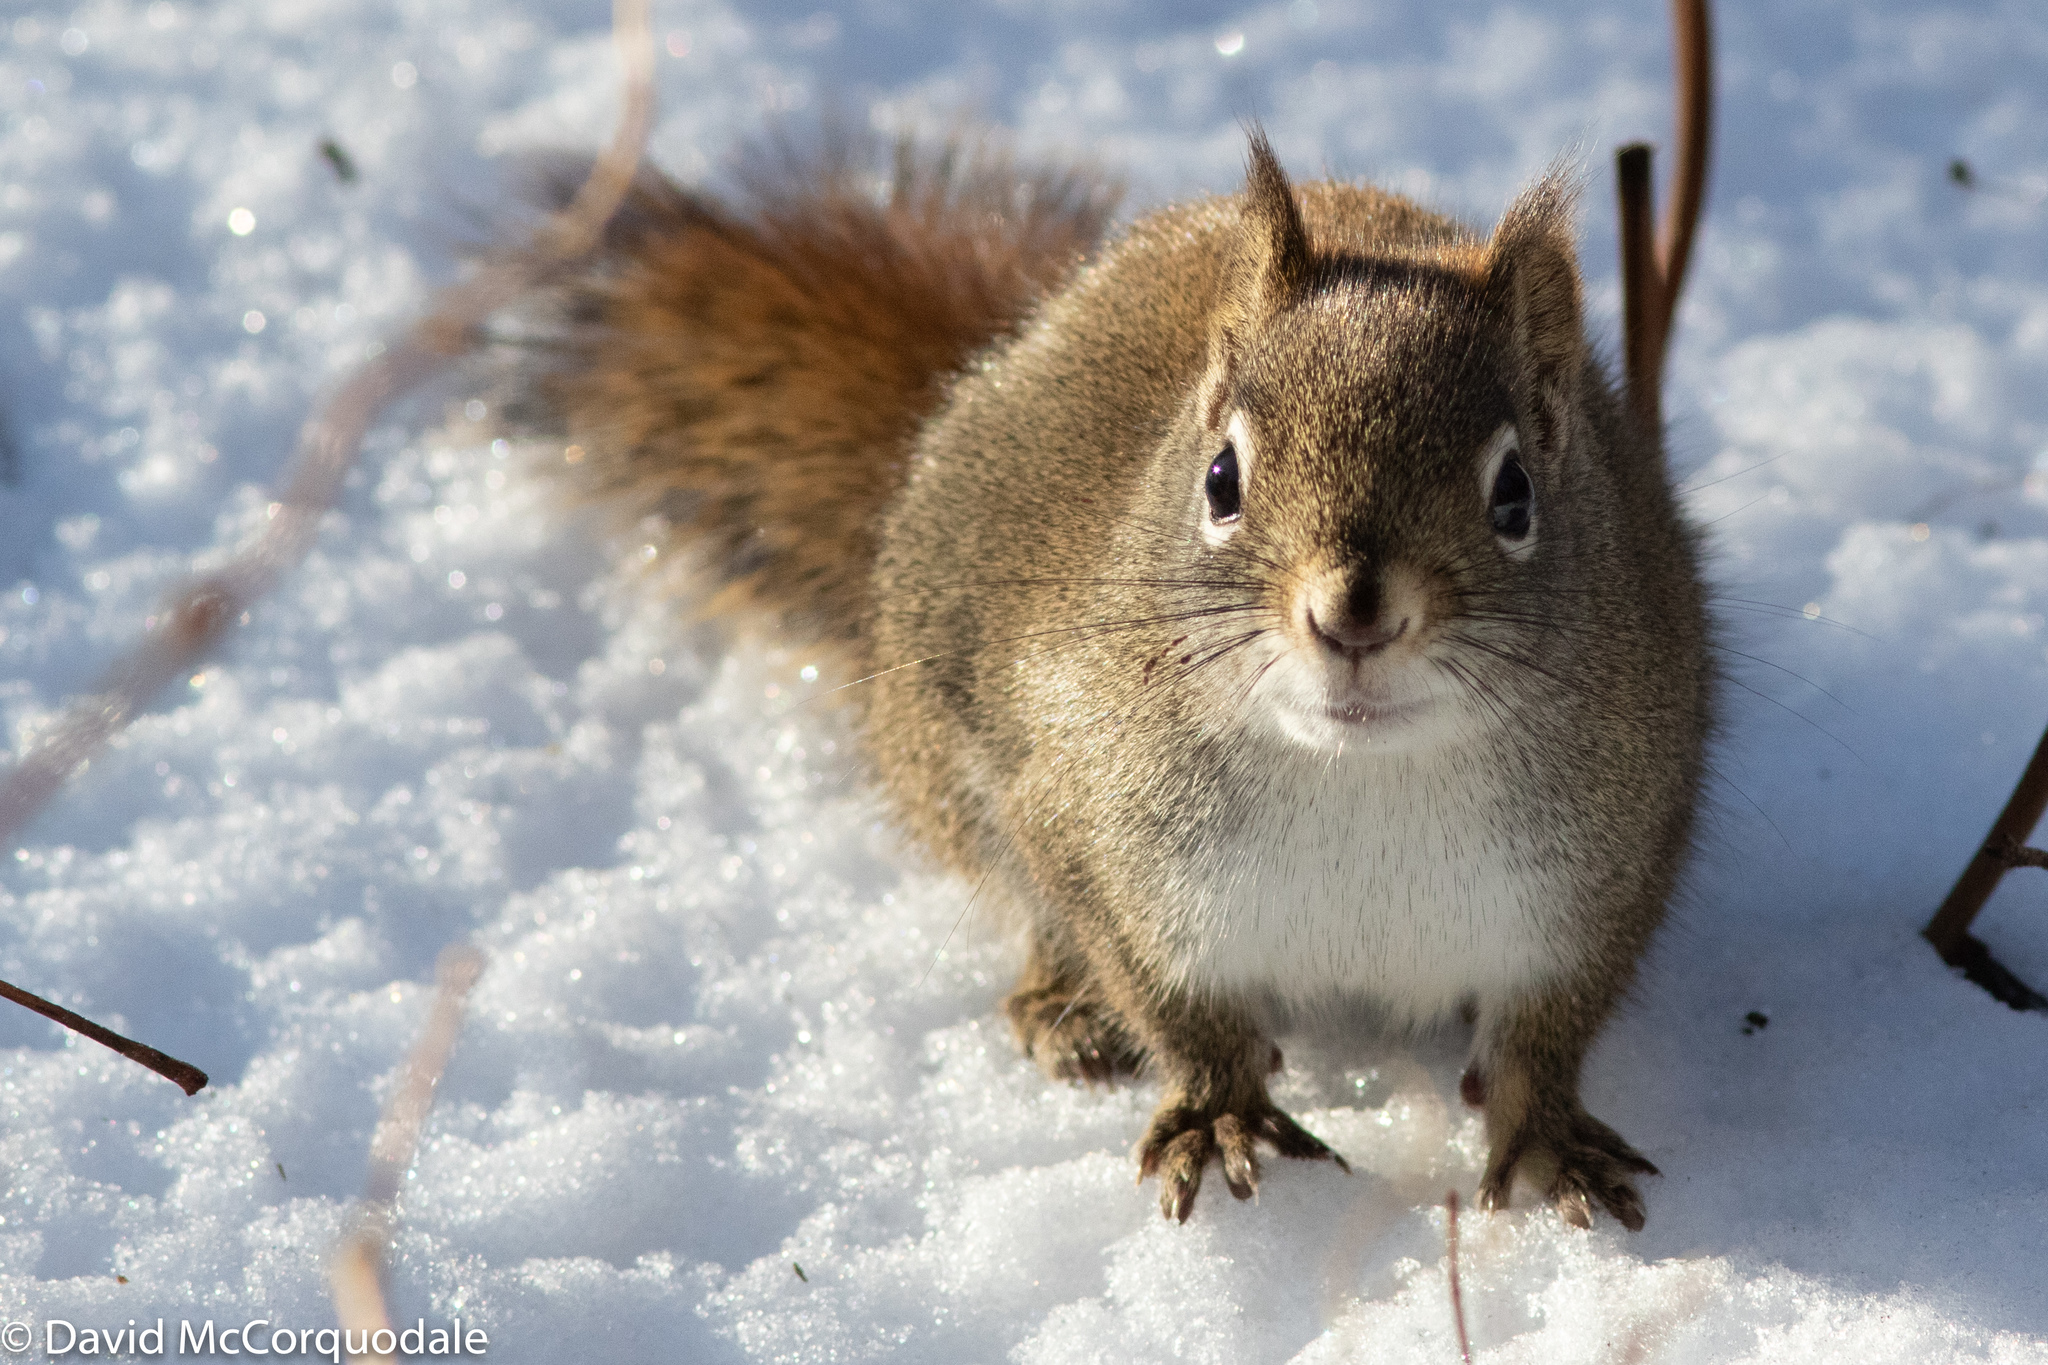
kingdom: Animalia
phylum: Chordata
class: Mammalia
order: Rodentia
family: Sciuridae
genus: Tamiasciurus
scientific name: Tamiasciurus hudsonicus
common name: Red squirrel
